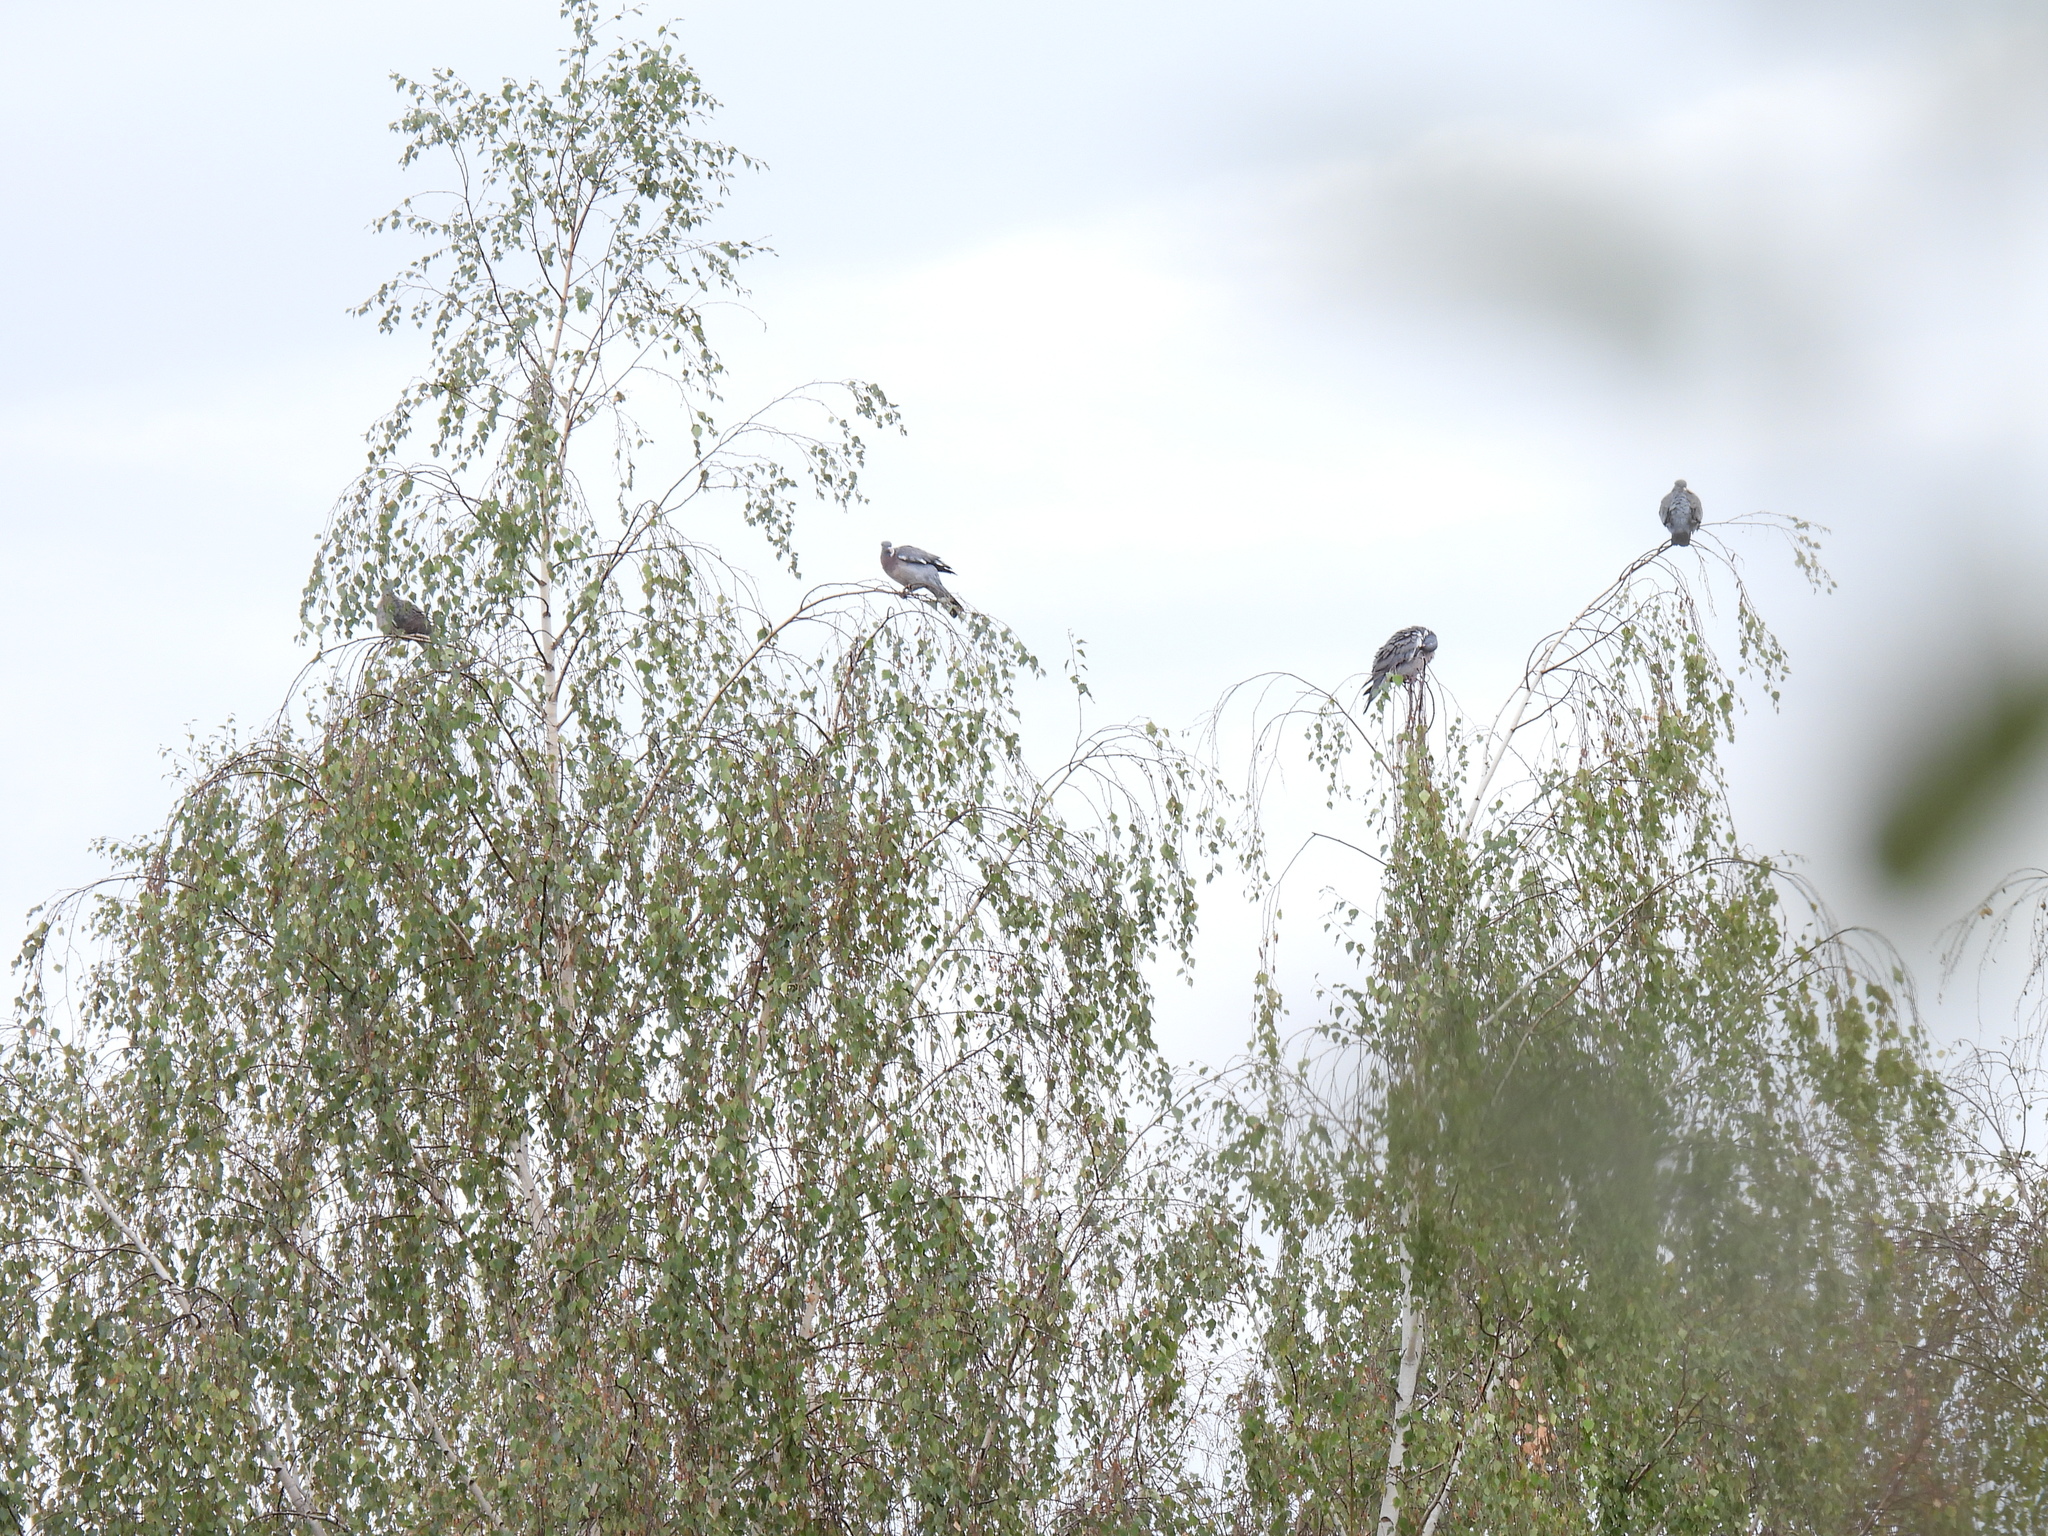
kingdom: Animalia
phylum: Chordata
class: Aves
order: Columbiformes
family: Columbidae
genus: Columba
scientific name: Columba palumbus
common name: Common wood pigeon
